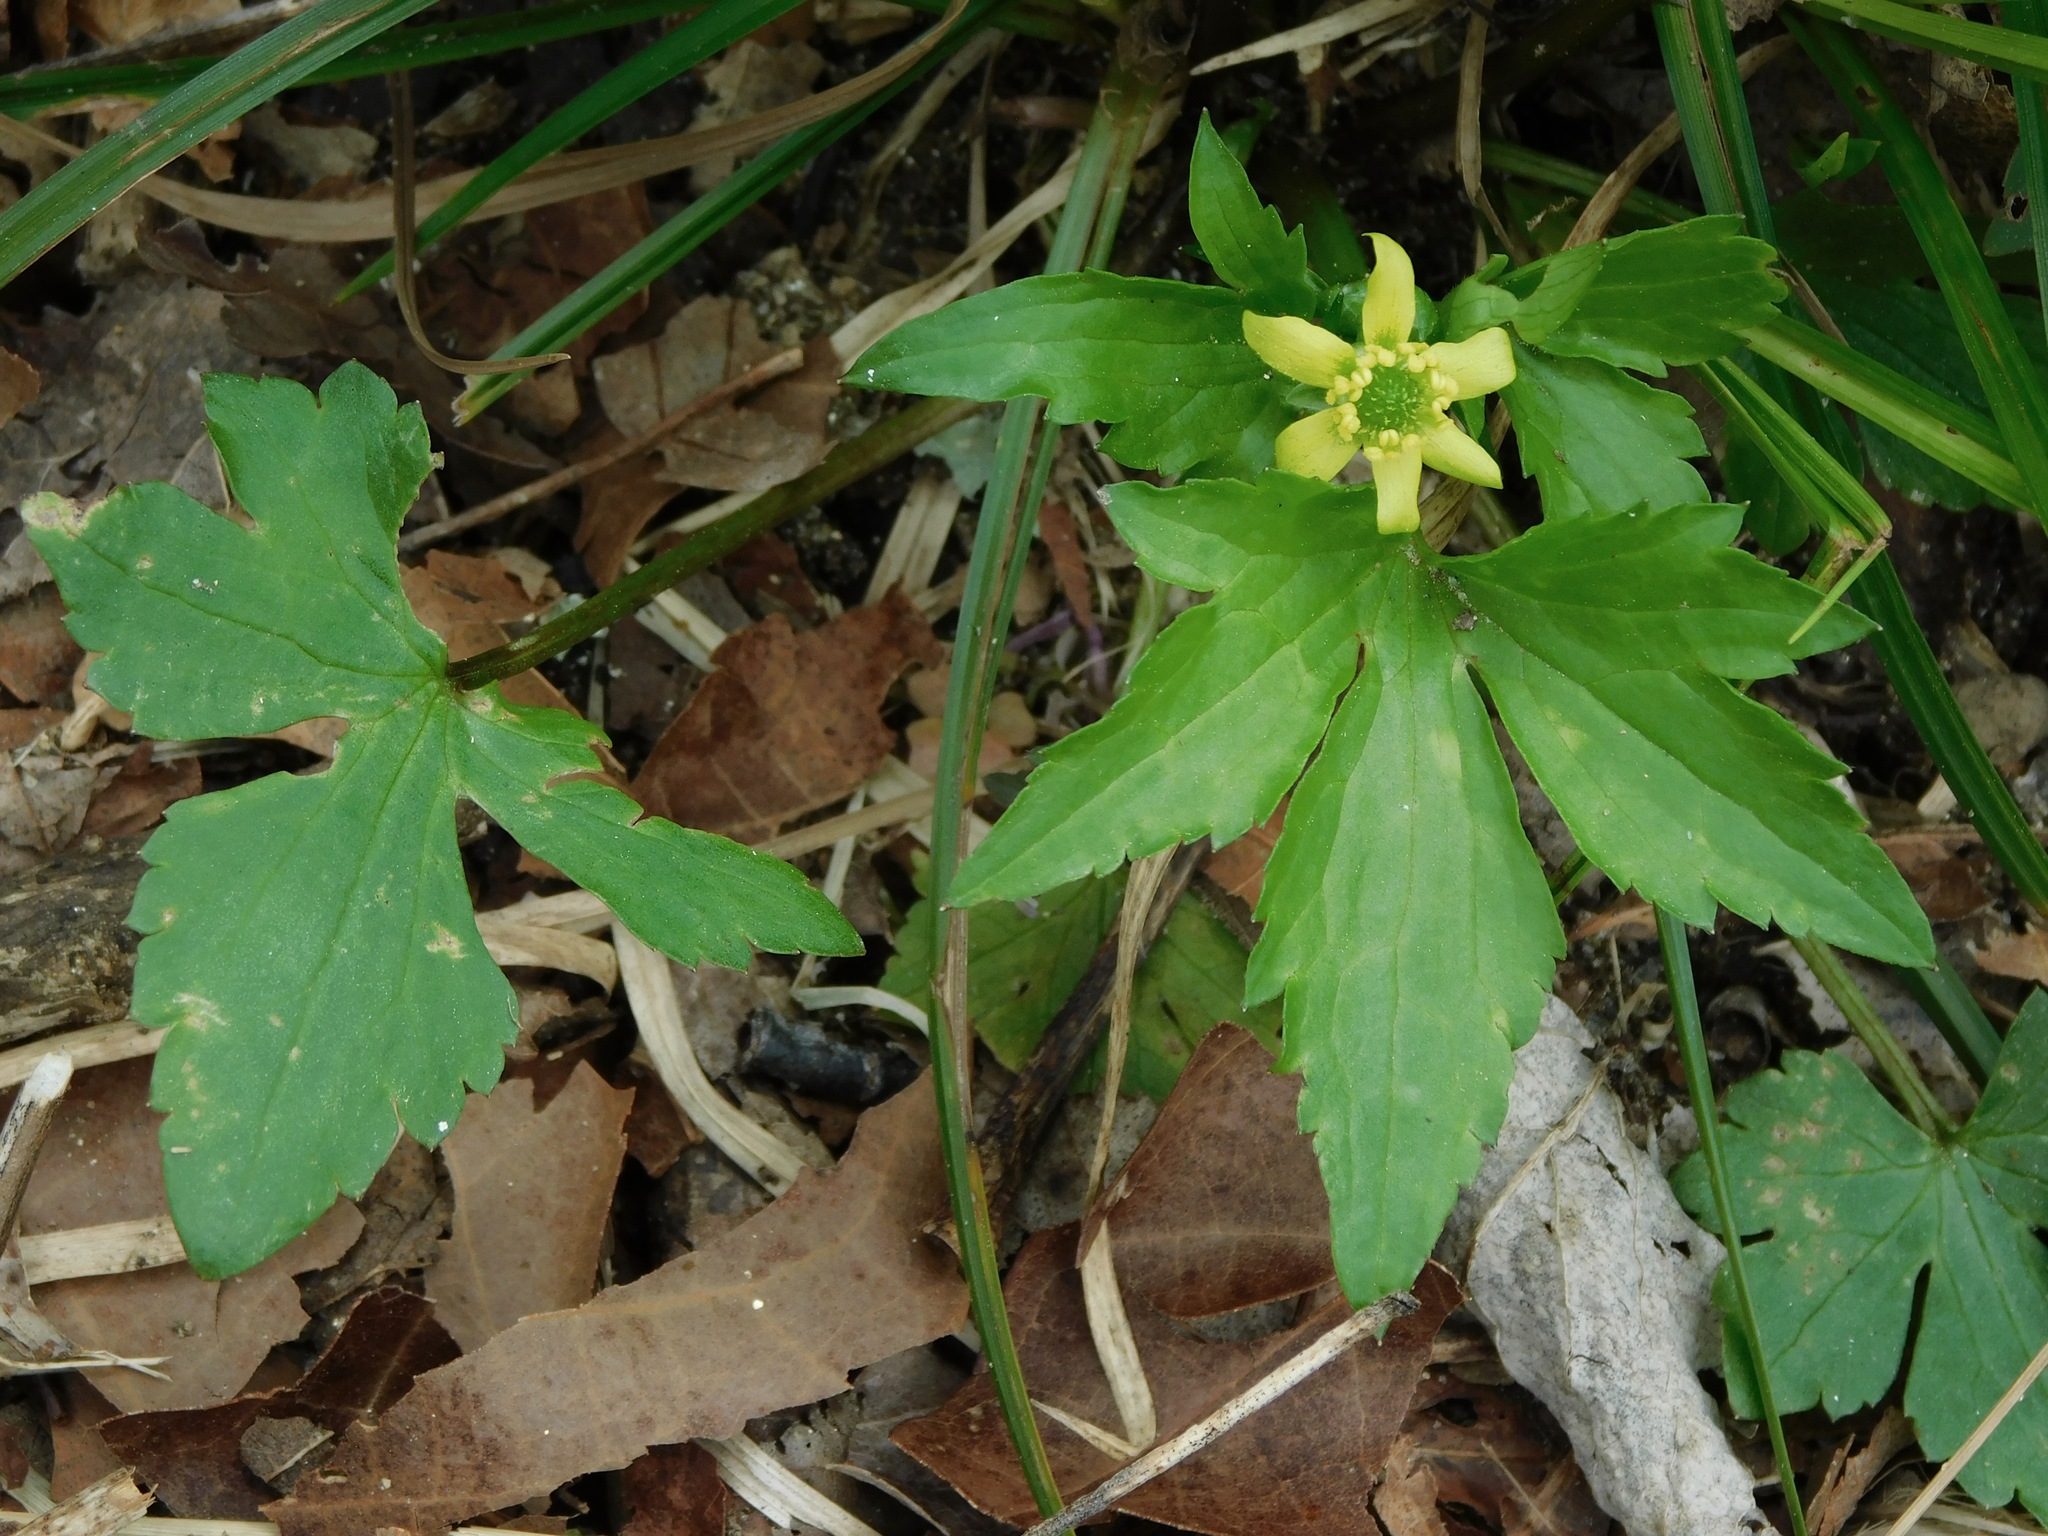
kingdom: Plantae
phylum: Tracheophyta
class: Magnoliopsida
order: Ranunculales
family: Ranunculaceae
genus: Ranunculus
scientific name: Ranunculus recurvatus
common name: Blisterwort
